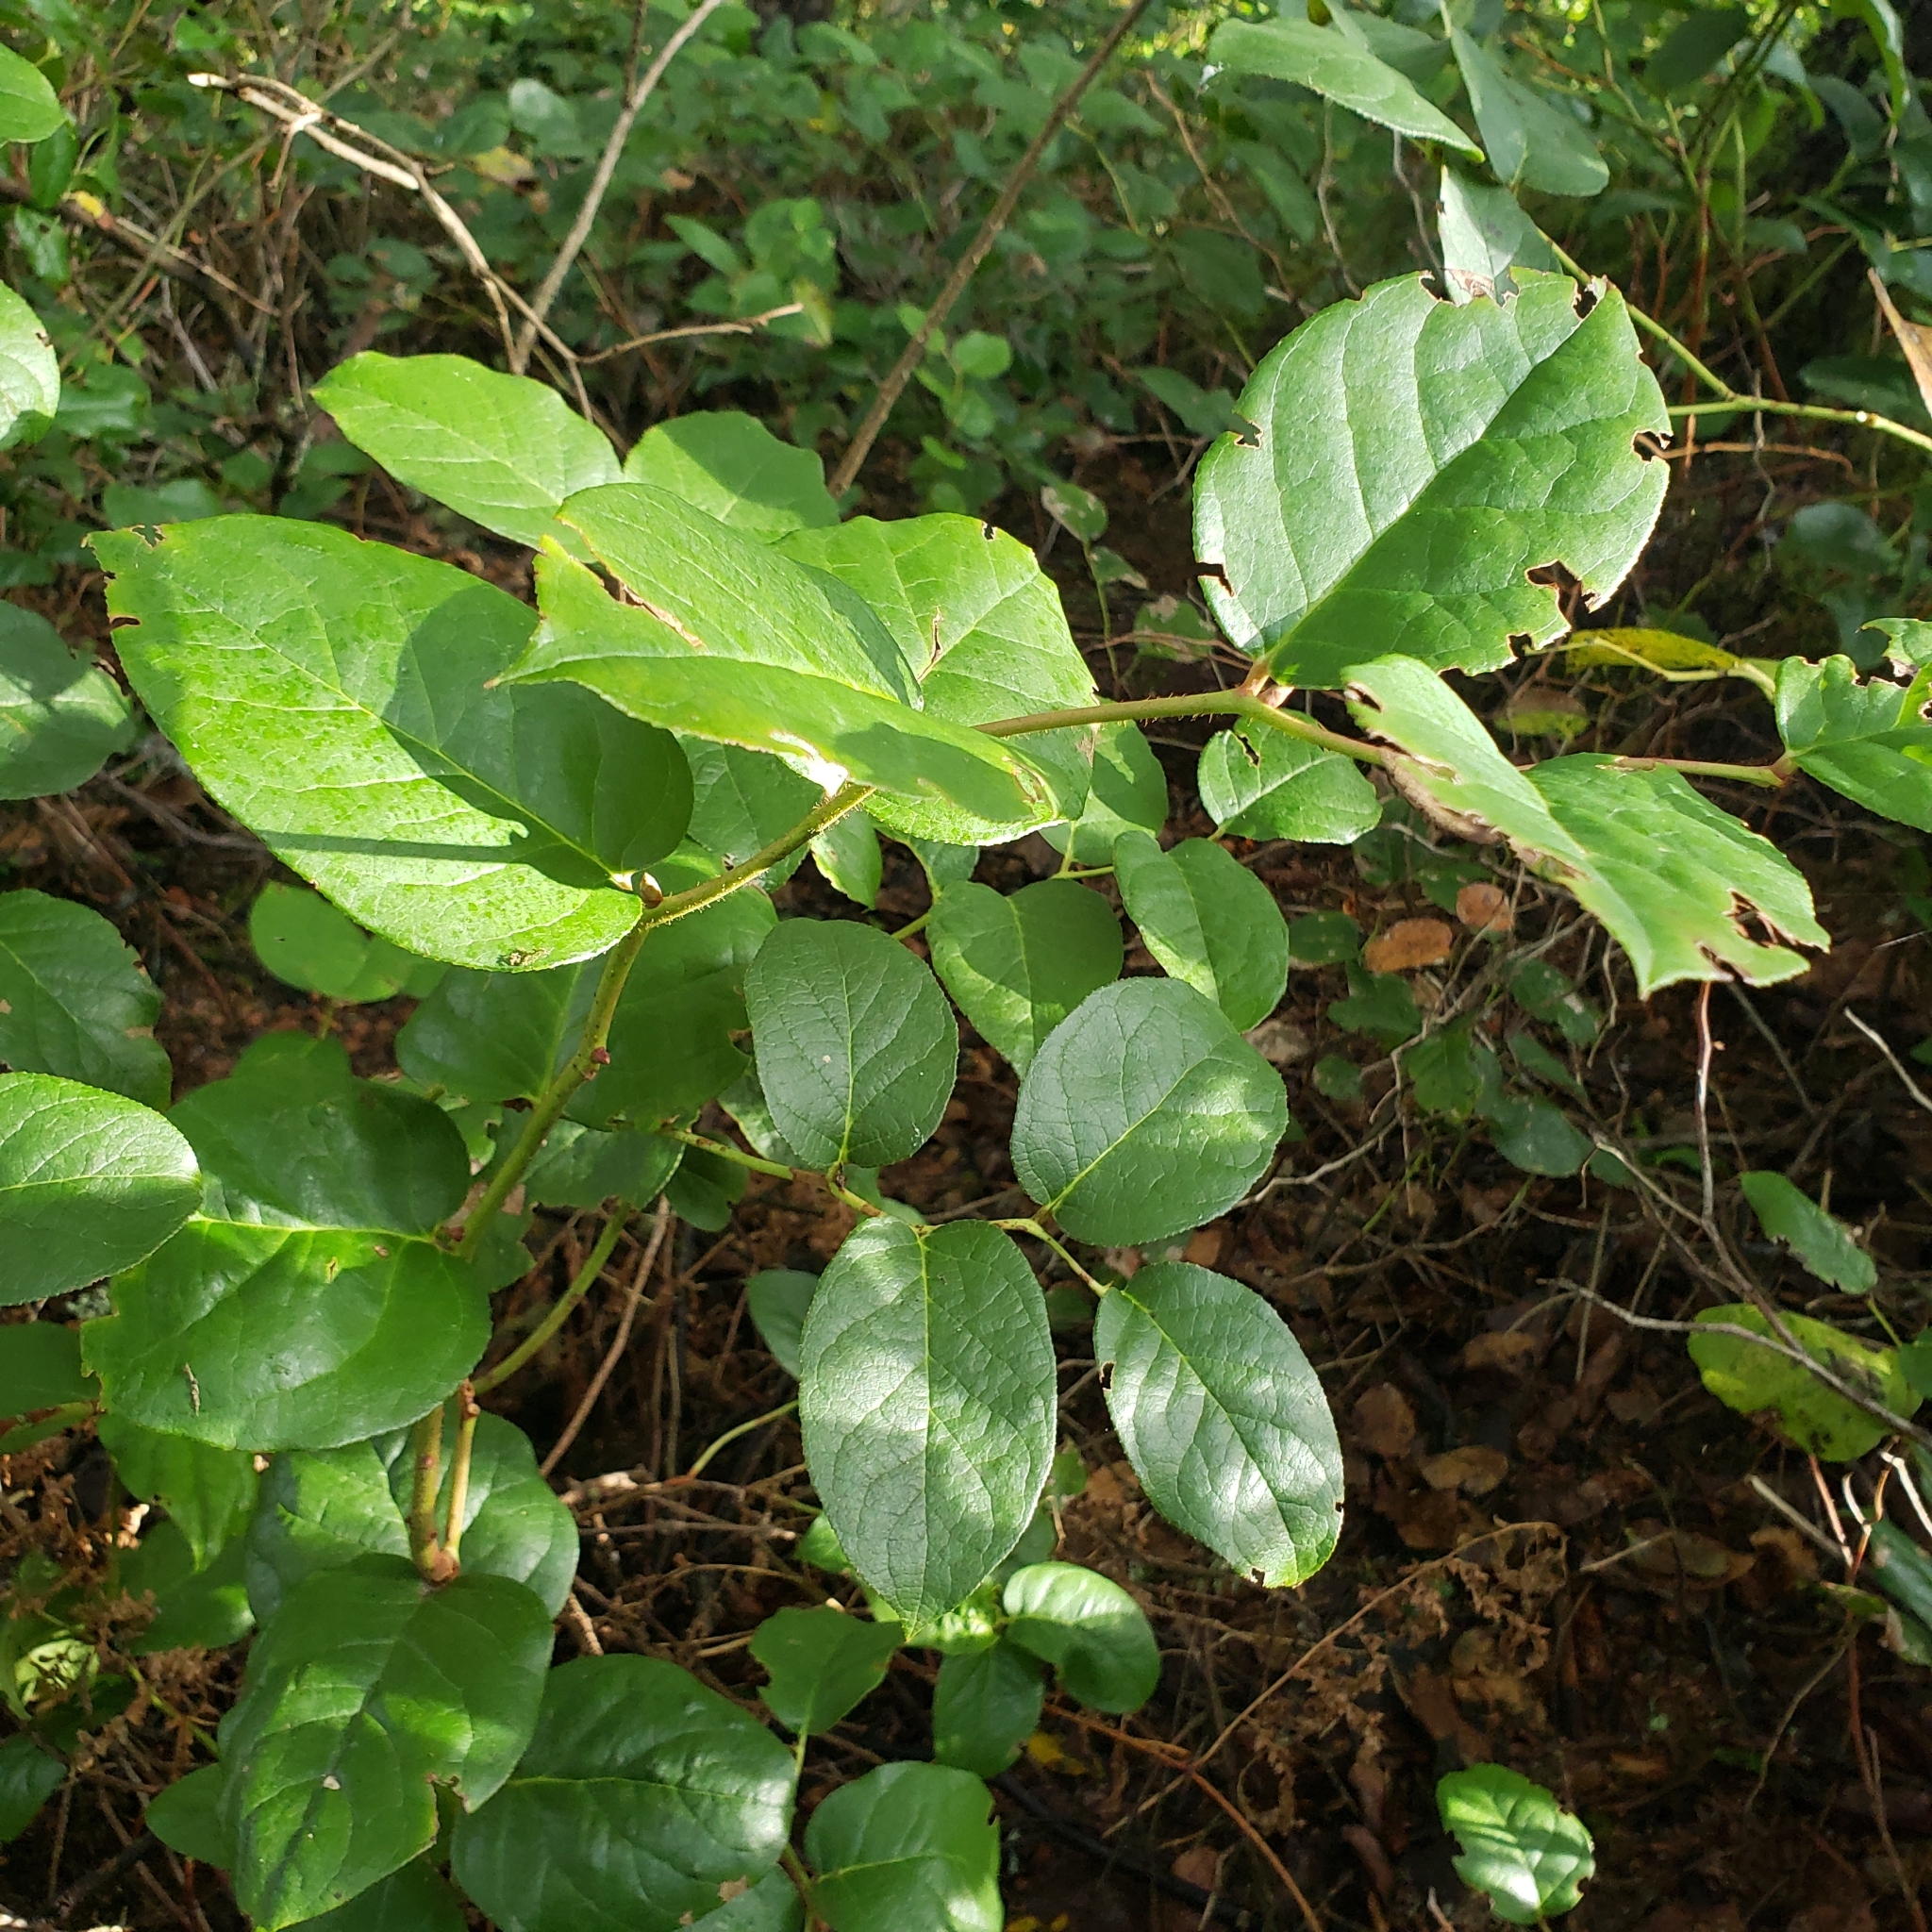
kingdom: Plantae
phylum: Tracheophyta
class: Magnoliopsida
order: Ericales
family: Ericaceae
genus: Gaultheria
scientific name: Gaultheria shallon
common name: Shallon
